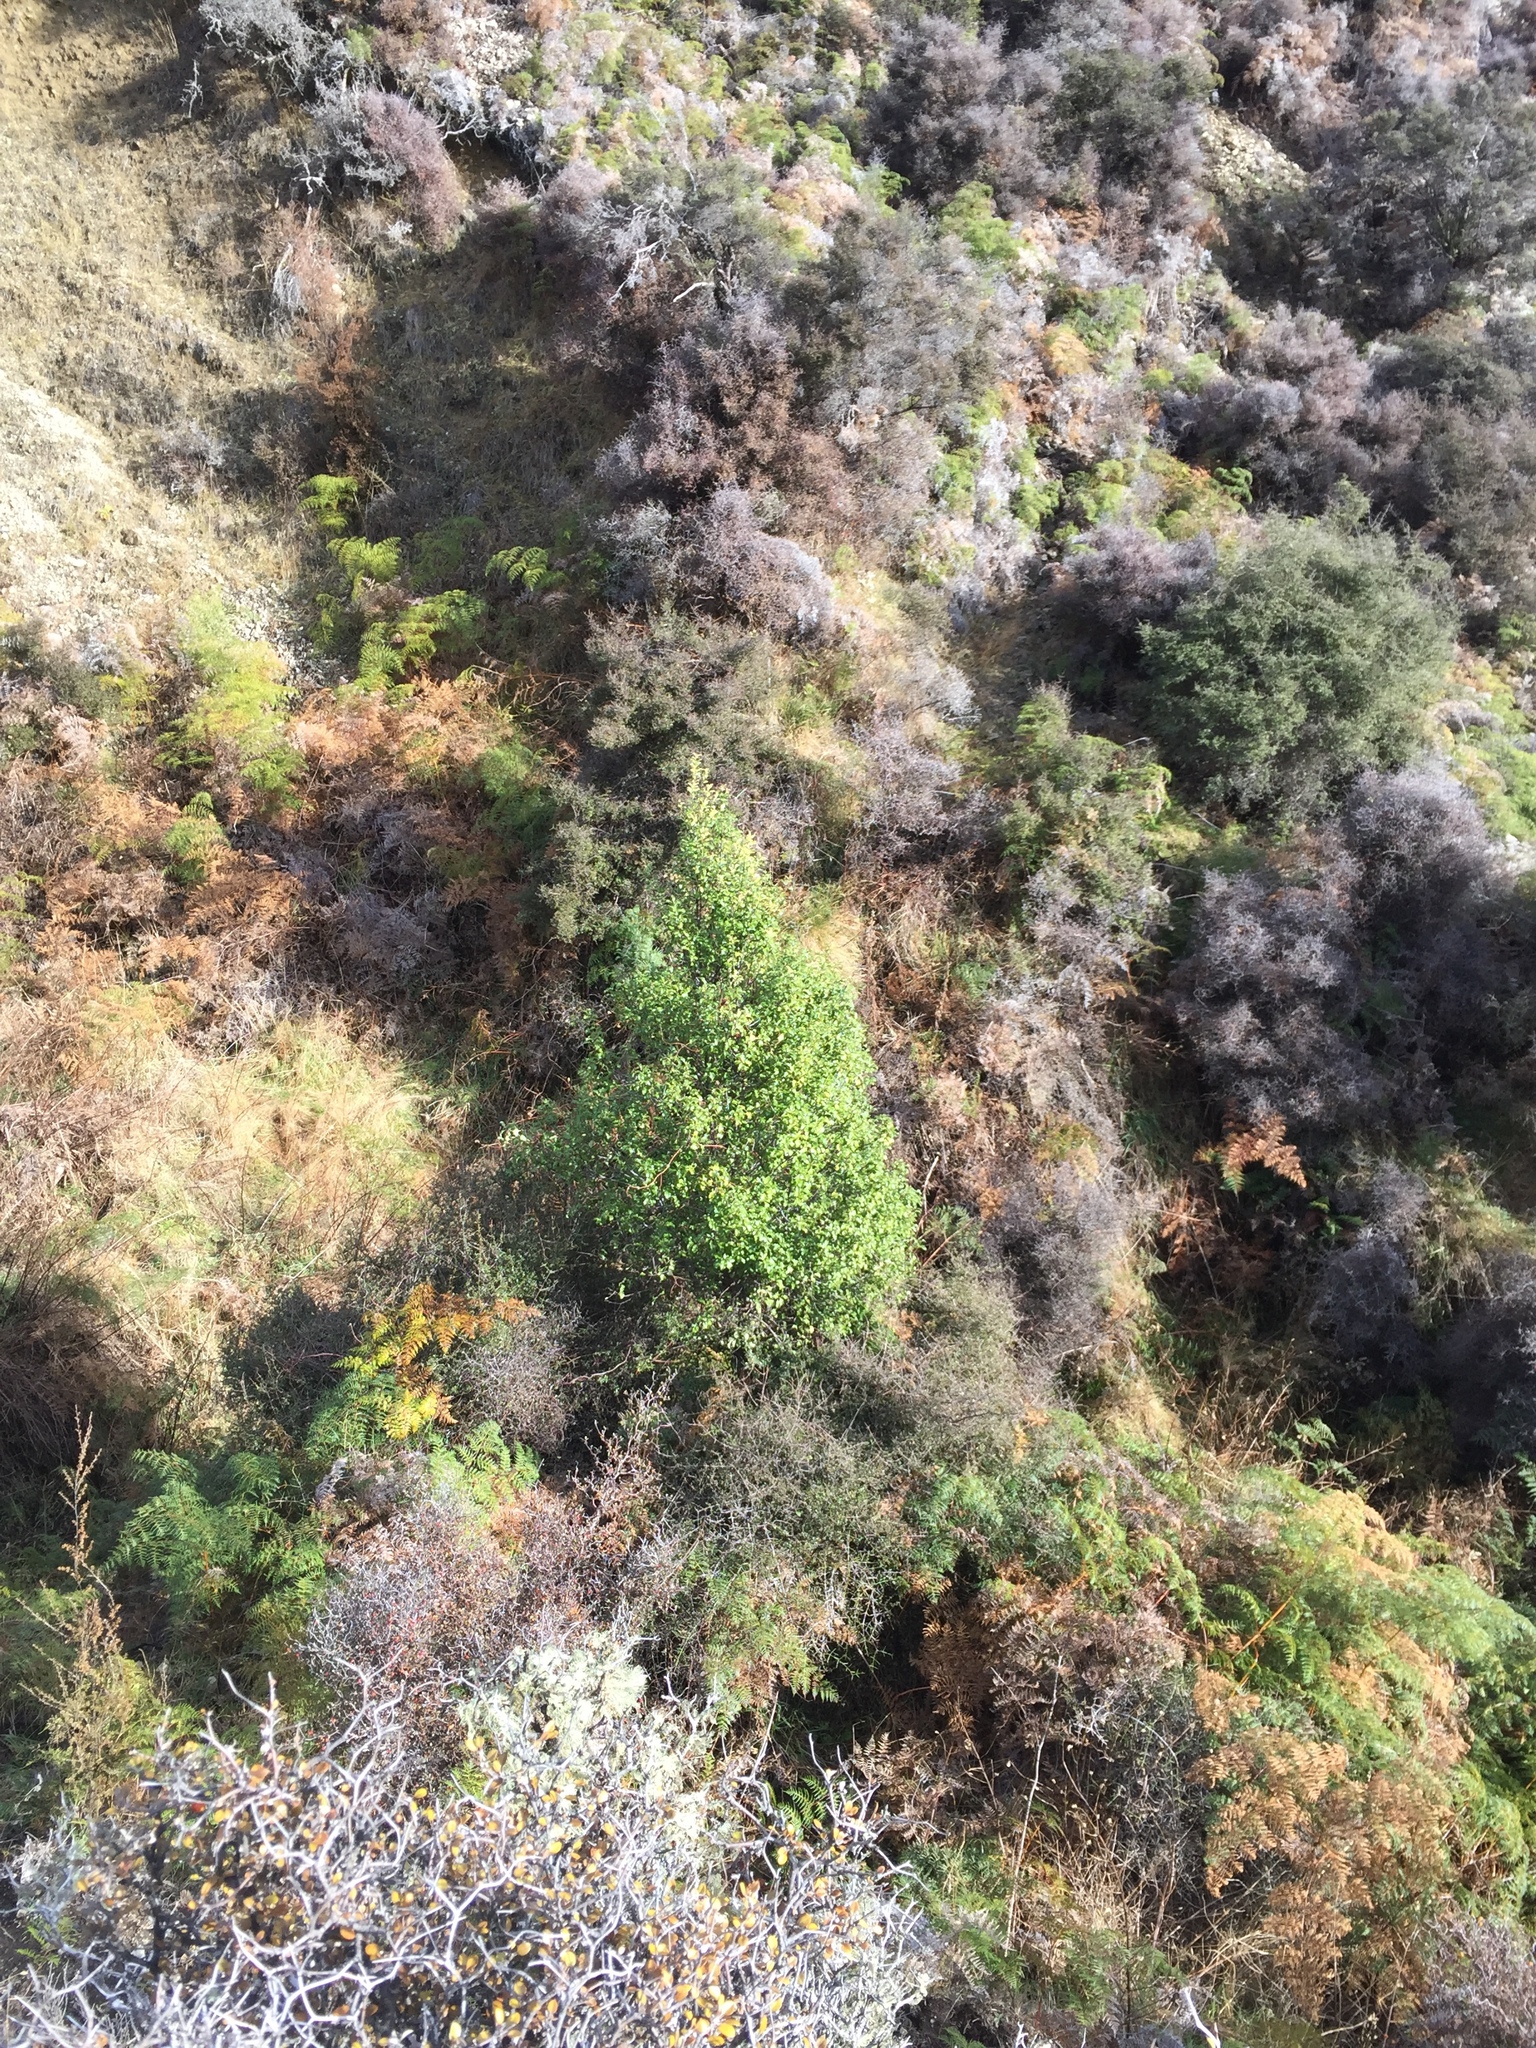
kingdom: Plantae
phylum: Tracheophyta
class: Magnoliopsida
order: Apiales
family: Pittosporaceae
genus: Pittosporum
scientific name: Pittosporum tenuifolium
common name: Kohuhu
